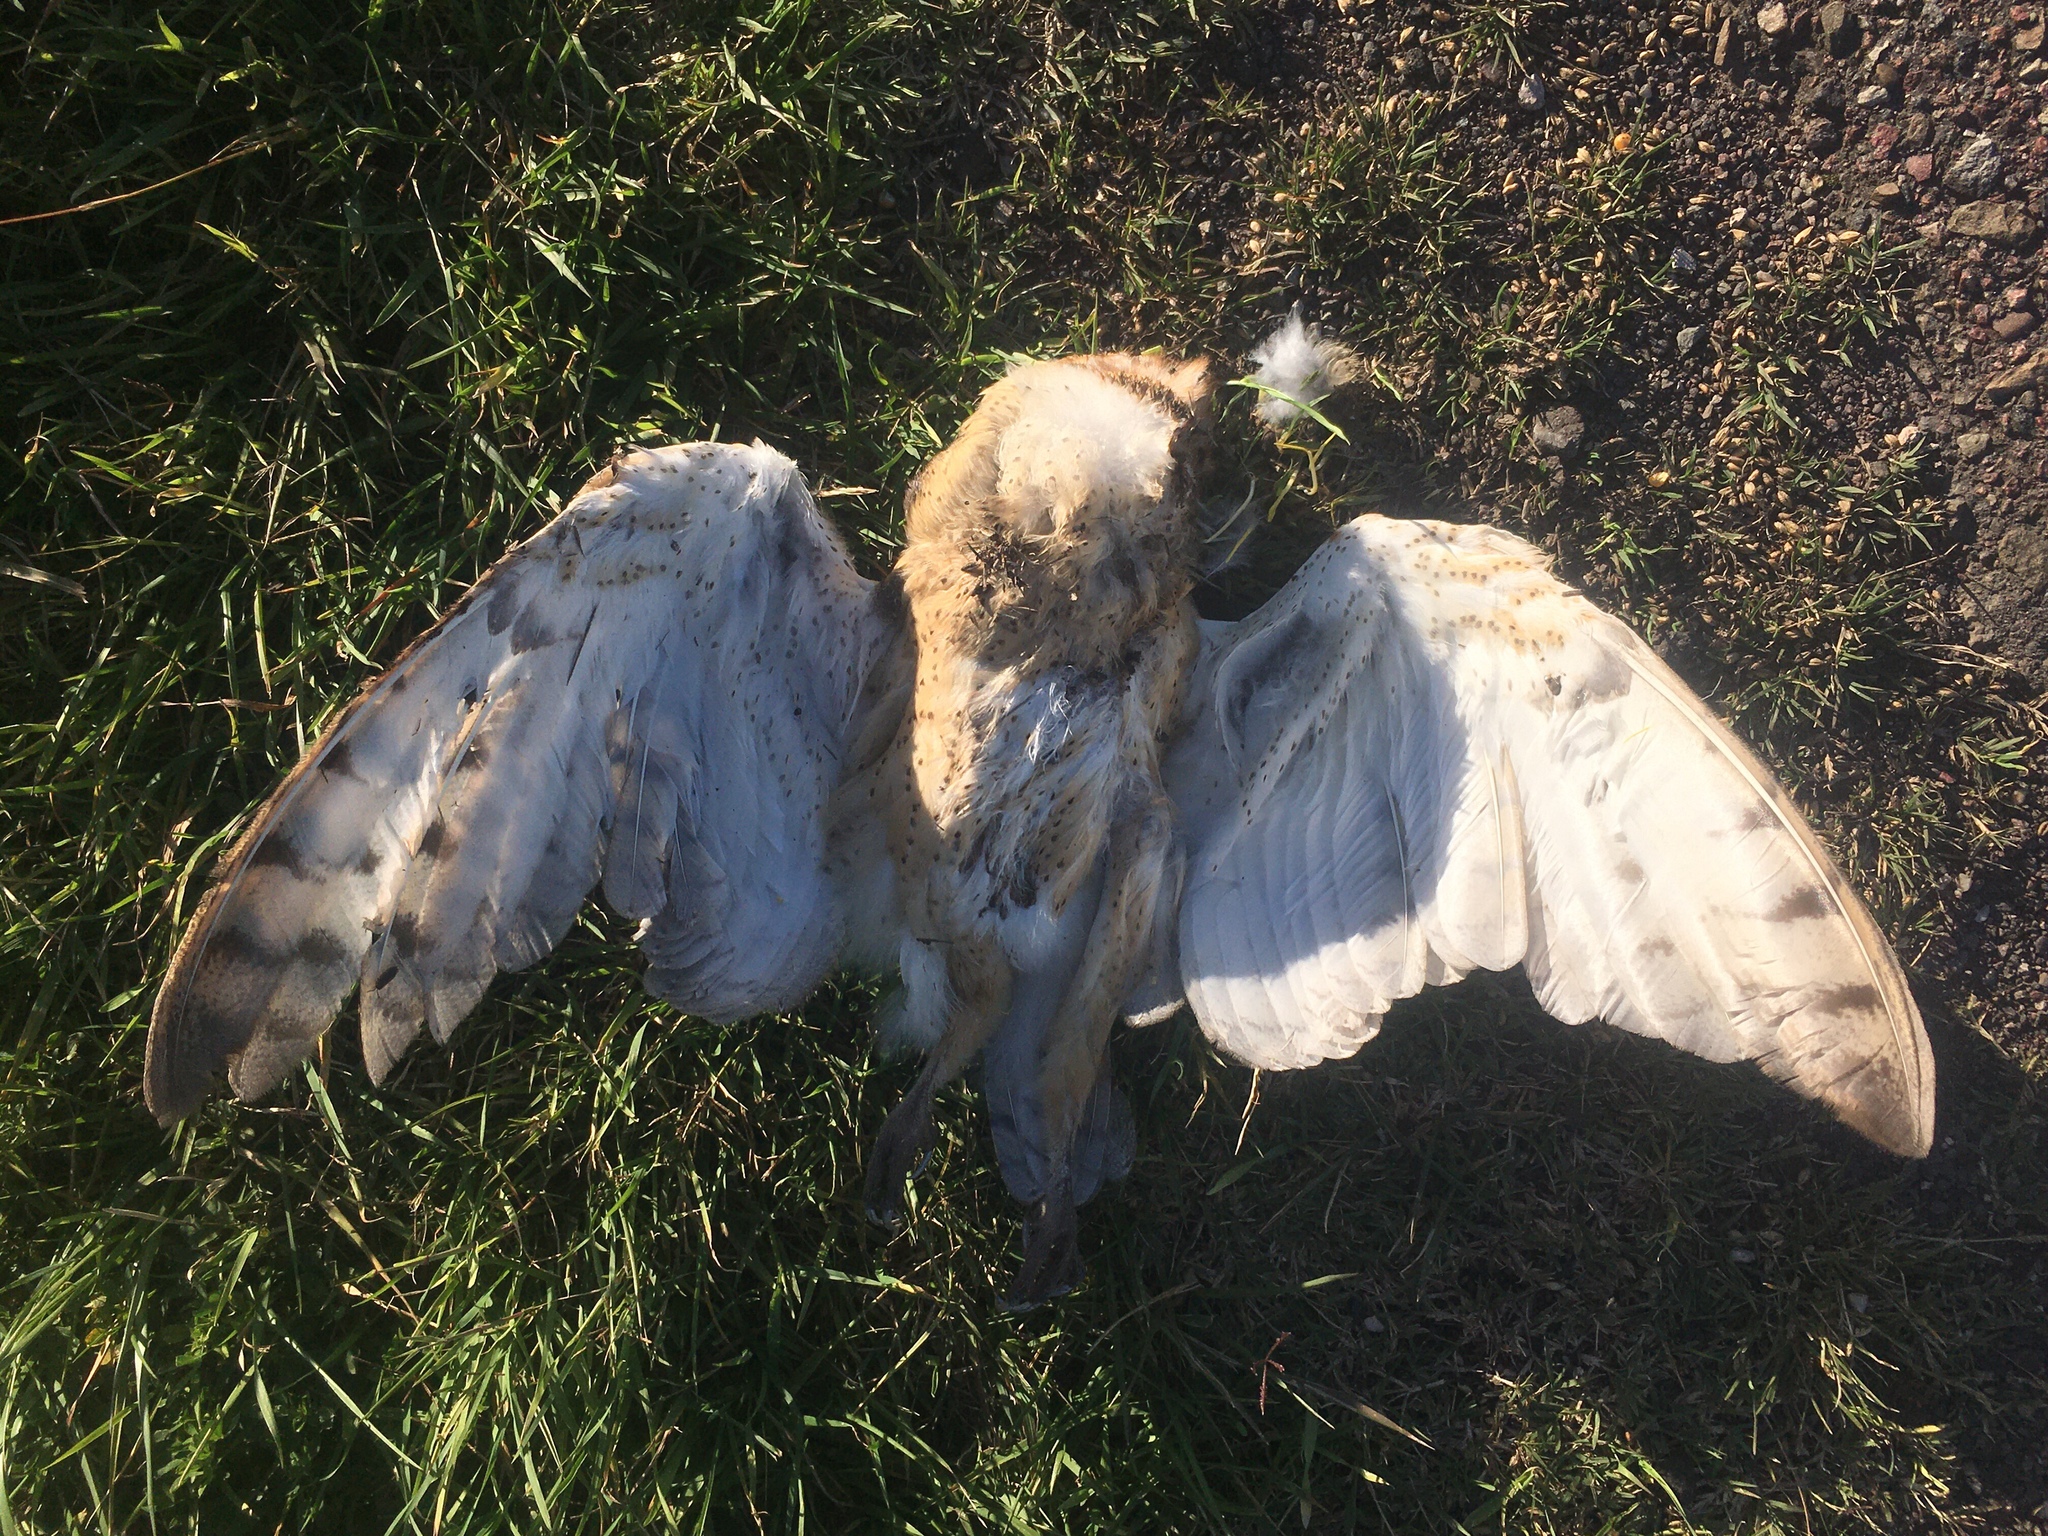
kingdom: Animalia
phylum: Chordata
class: Aves
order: Strigiformes
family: Tytonidae
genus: Tyto
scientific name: Tyto furcata
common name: American barn owl
